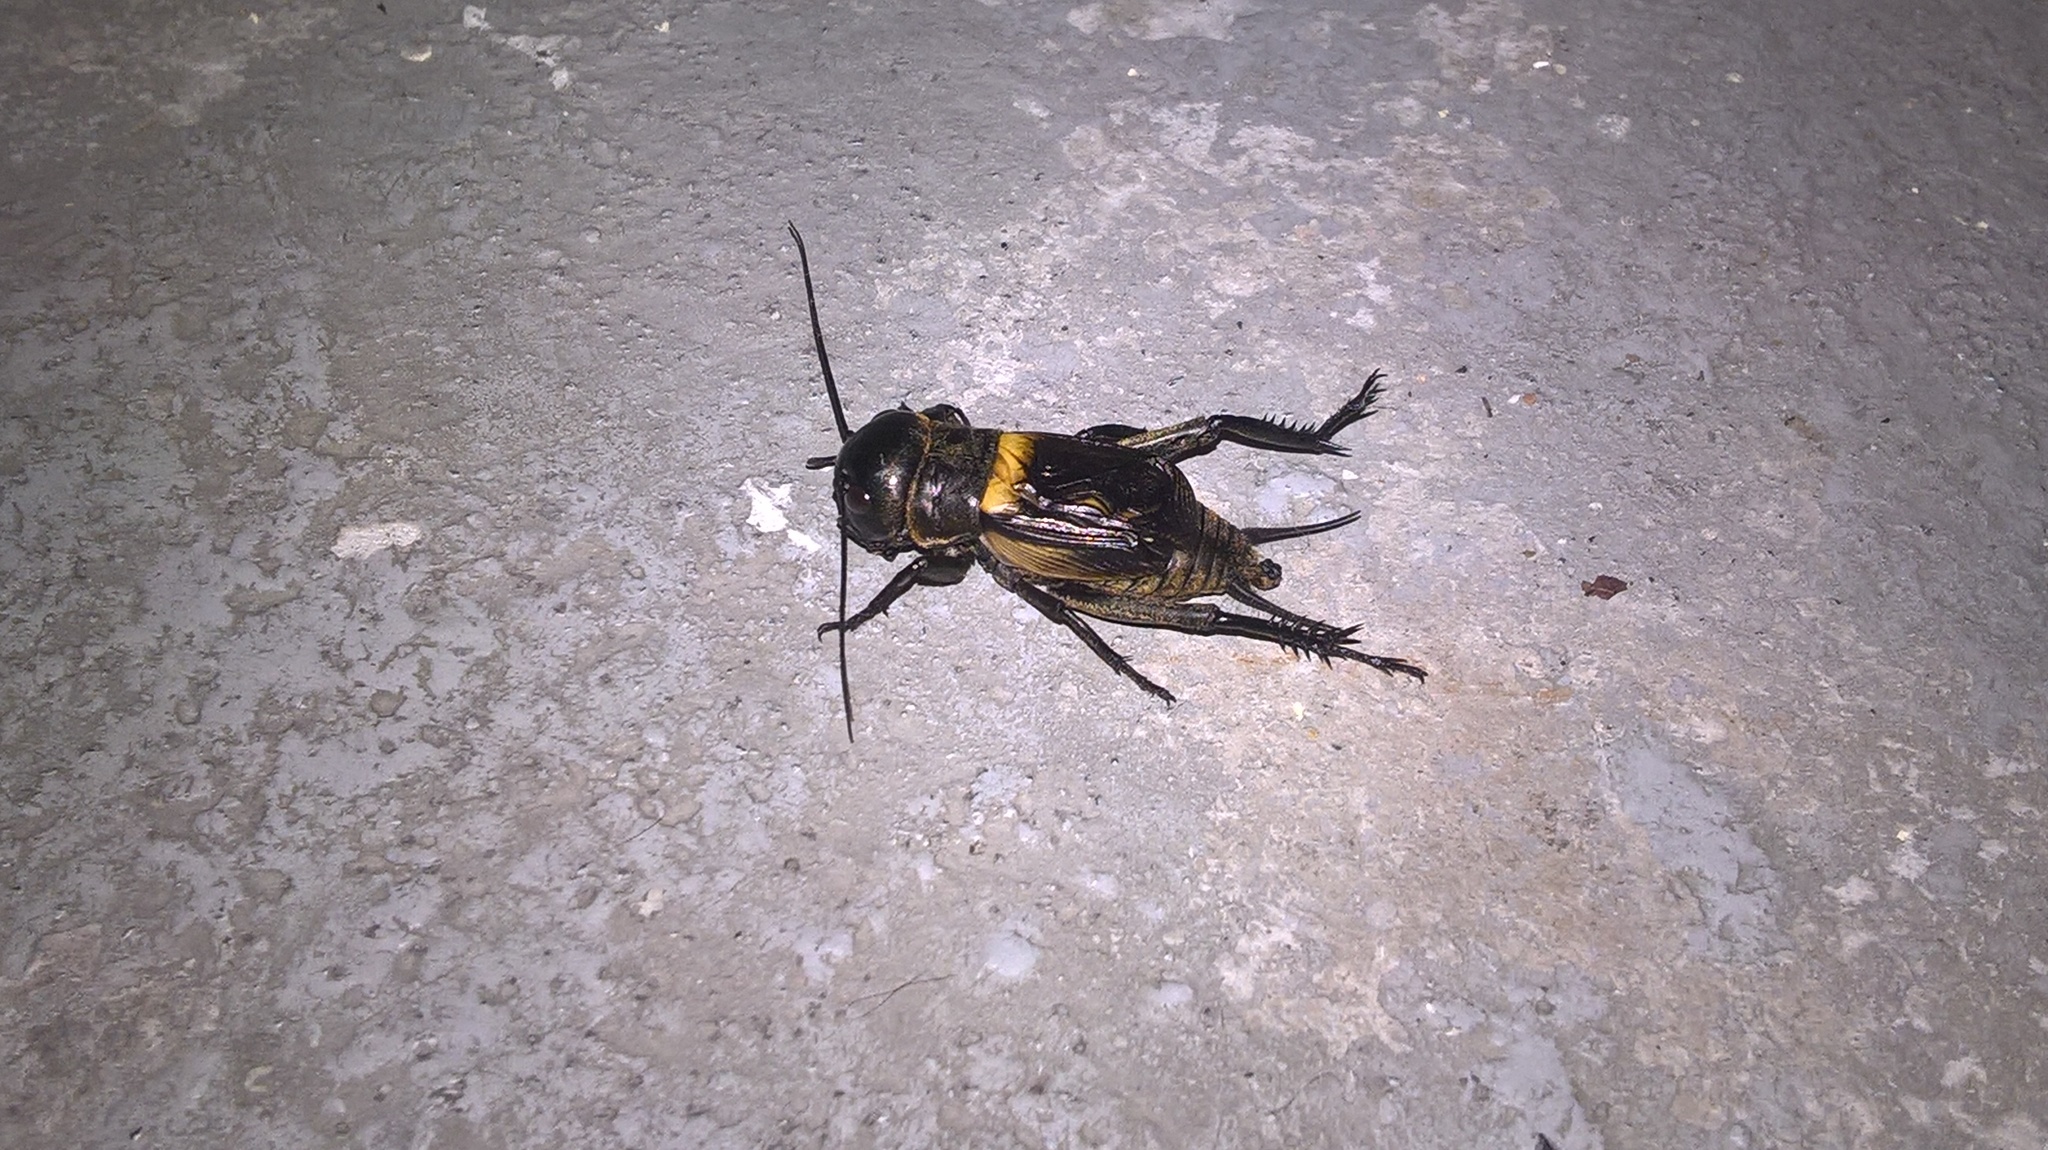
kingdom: Animalia
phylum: Arthropoda
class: Insecta
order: Orthoptera
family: Gryllidae
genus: Gryllus
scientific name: Gryllus campestris
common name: Field cricket
